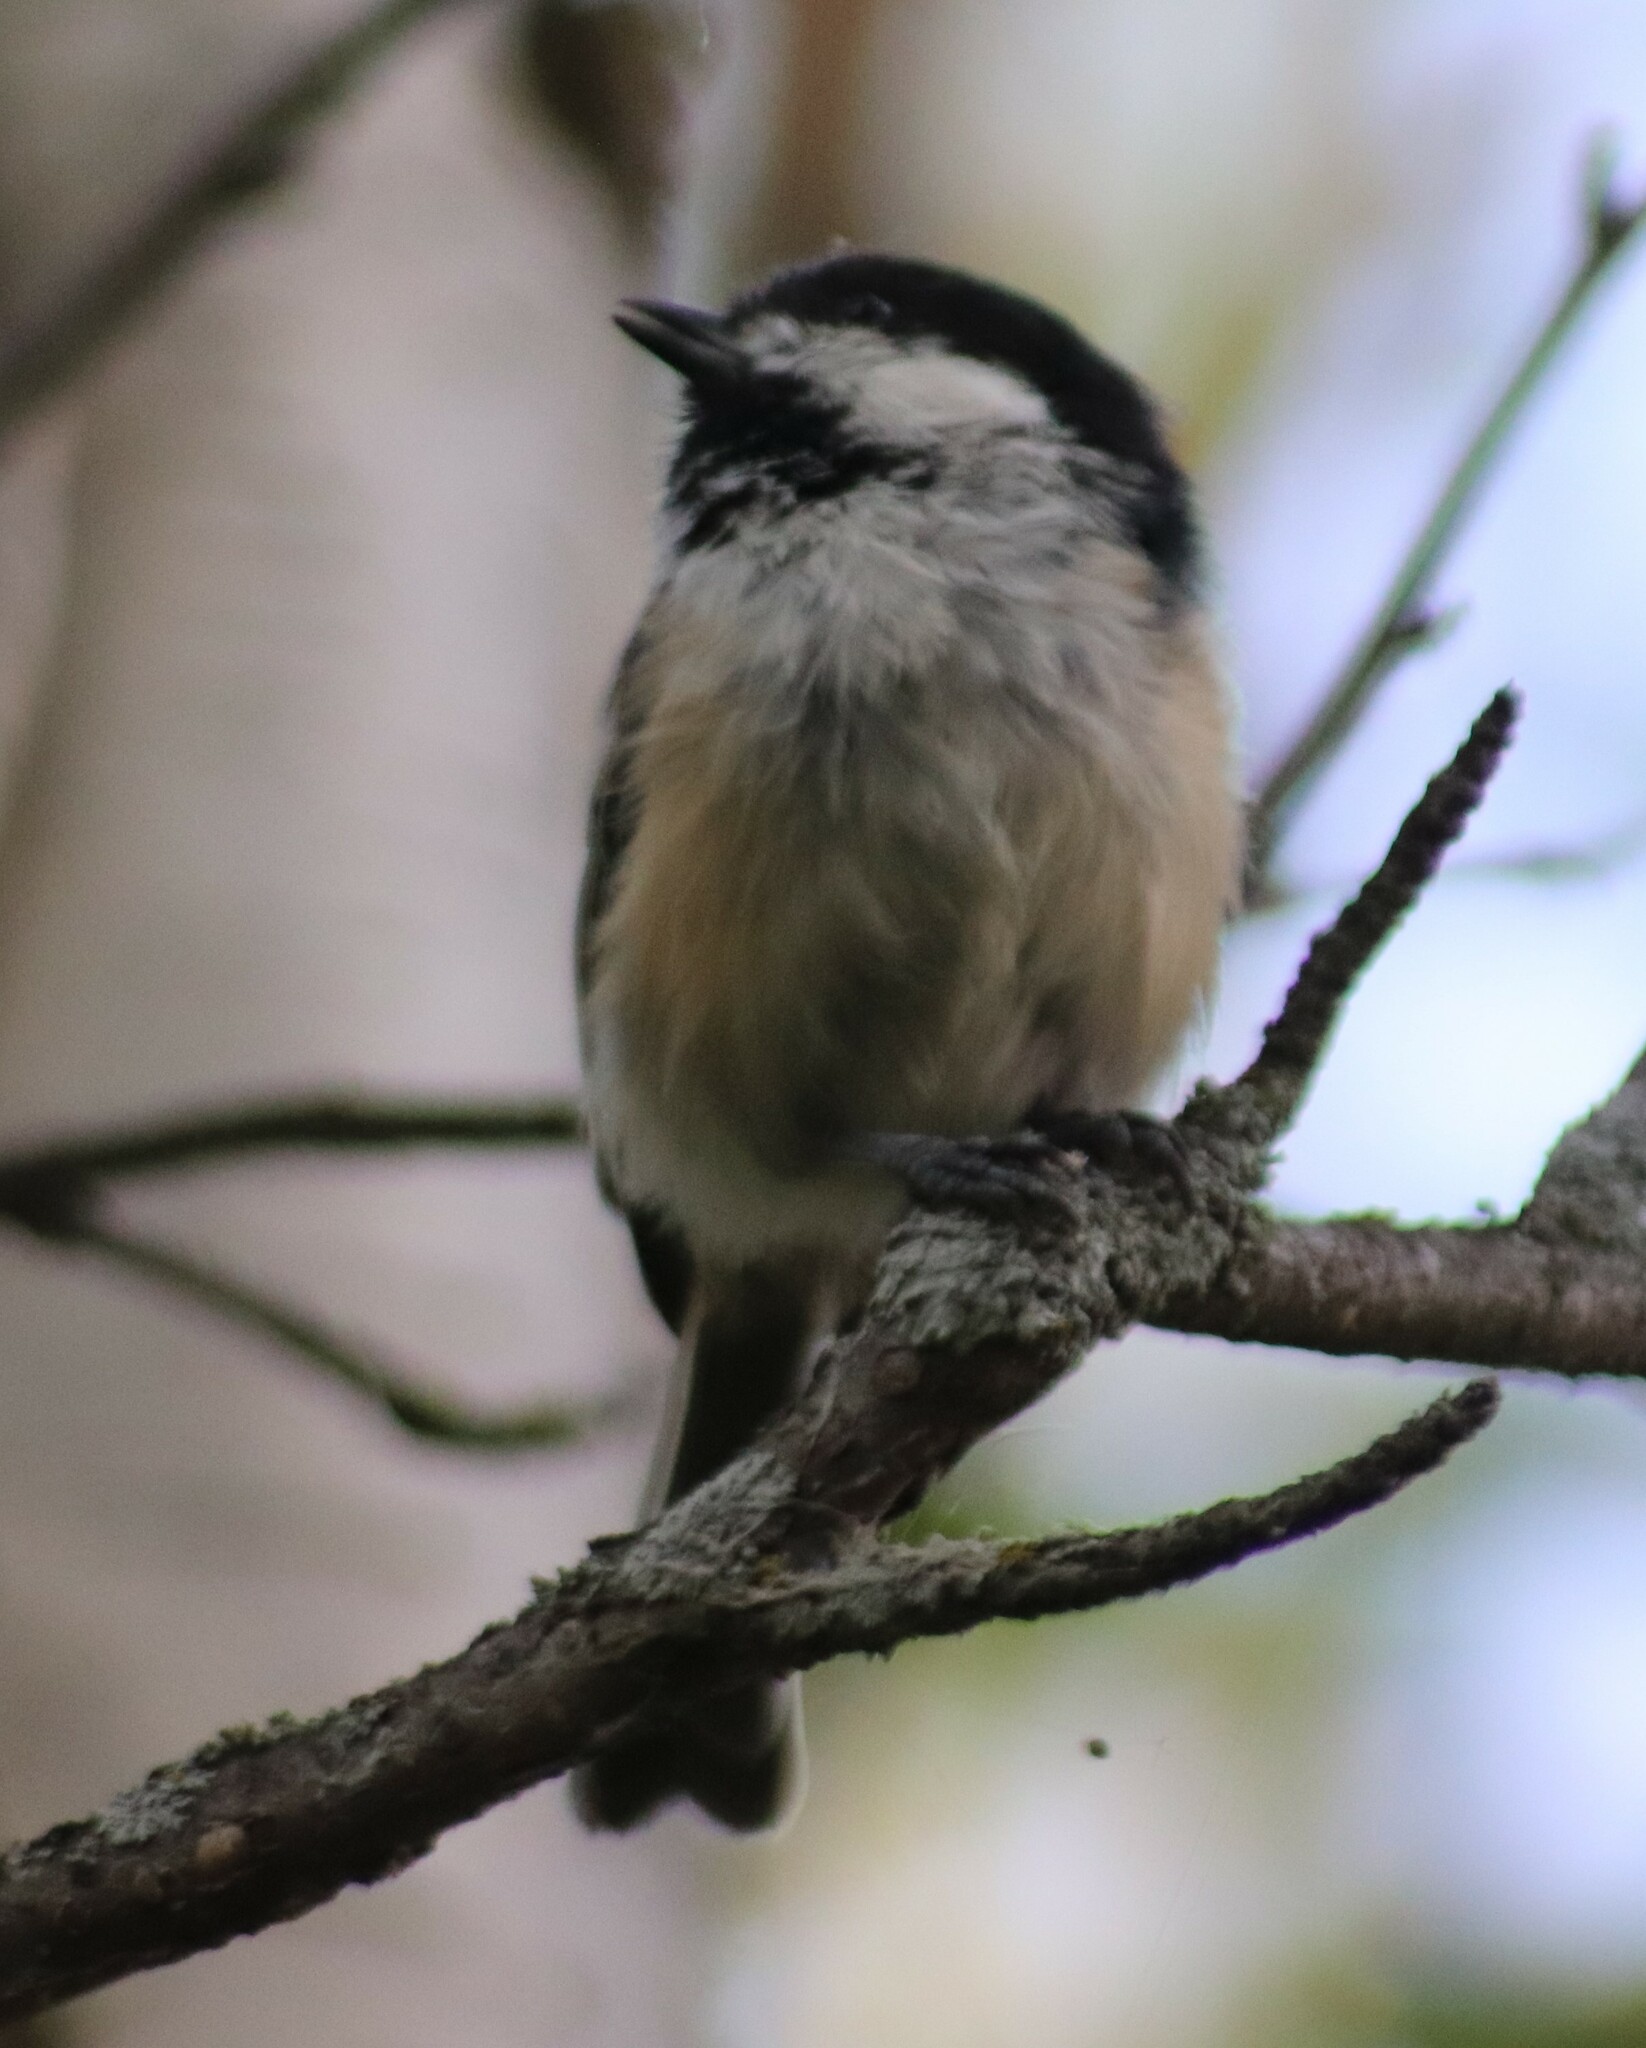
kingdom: Animalia
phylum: Chordata
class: Aves
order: Passeriformes
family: Paridae
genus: Poecile
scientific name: Poecile atricapillus
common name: Black-capped chickadee
